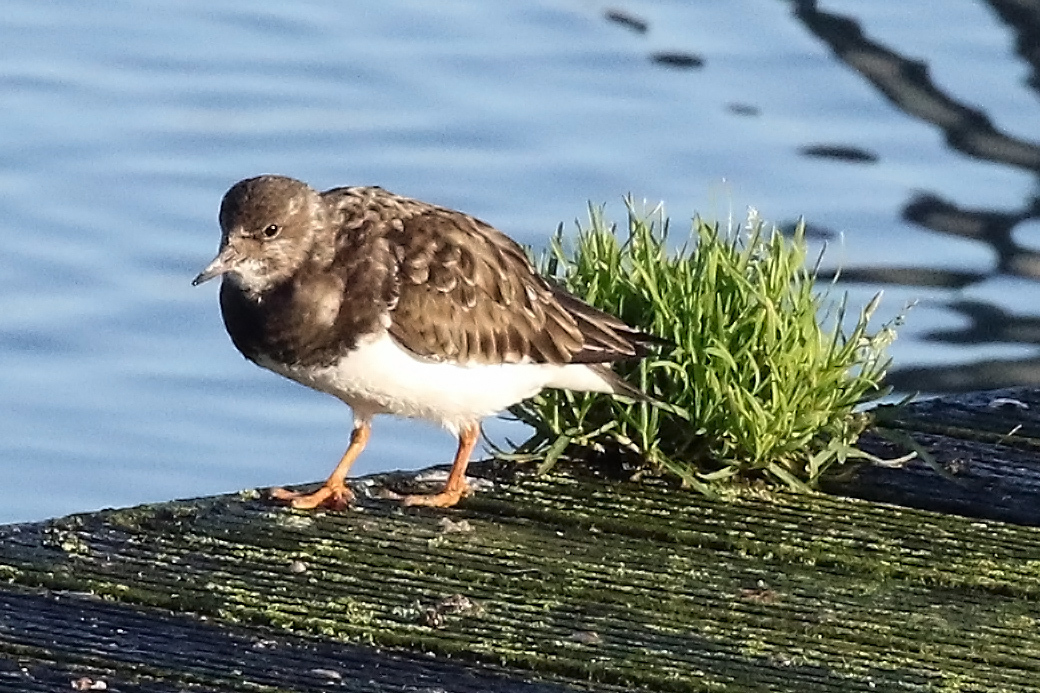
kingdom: Animalia
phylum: Chordata
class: Aves
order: Charadriiformes
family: Scolopacidae
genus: Arenaria
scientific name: Arenaria interpres
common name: Ruddy turnstone
